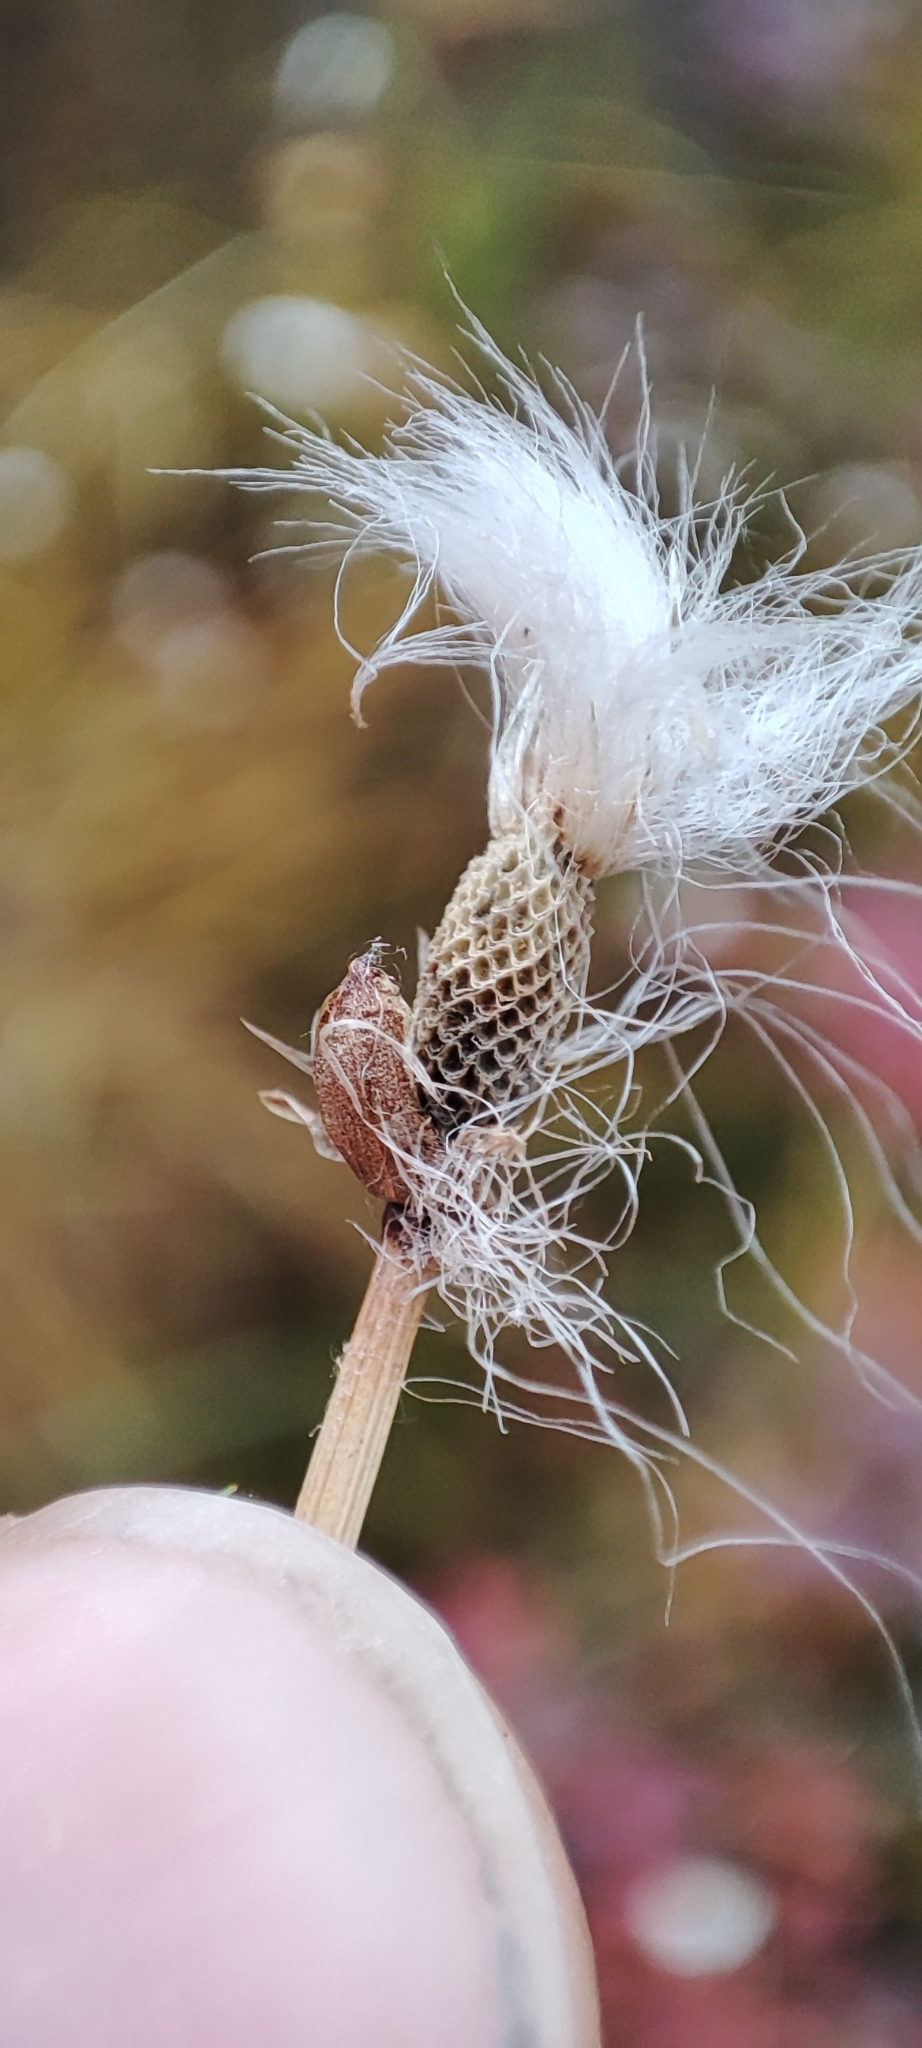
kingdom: Plantae
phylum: Tracheophyta
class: Liliopsida
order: Poales
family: Cyperaceae
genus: Eriophorum
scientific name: Eriophorum scheuchzeri
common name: Scheuchzer's cottongrass
